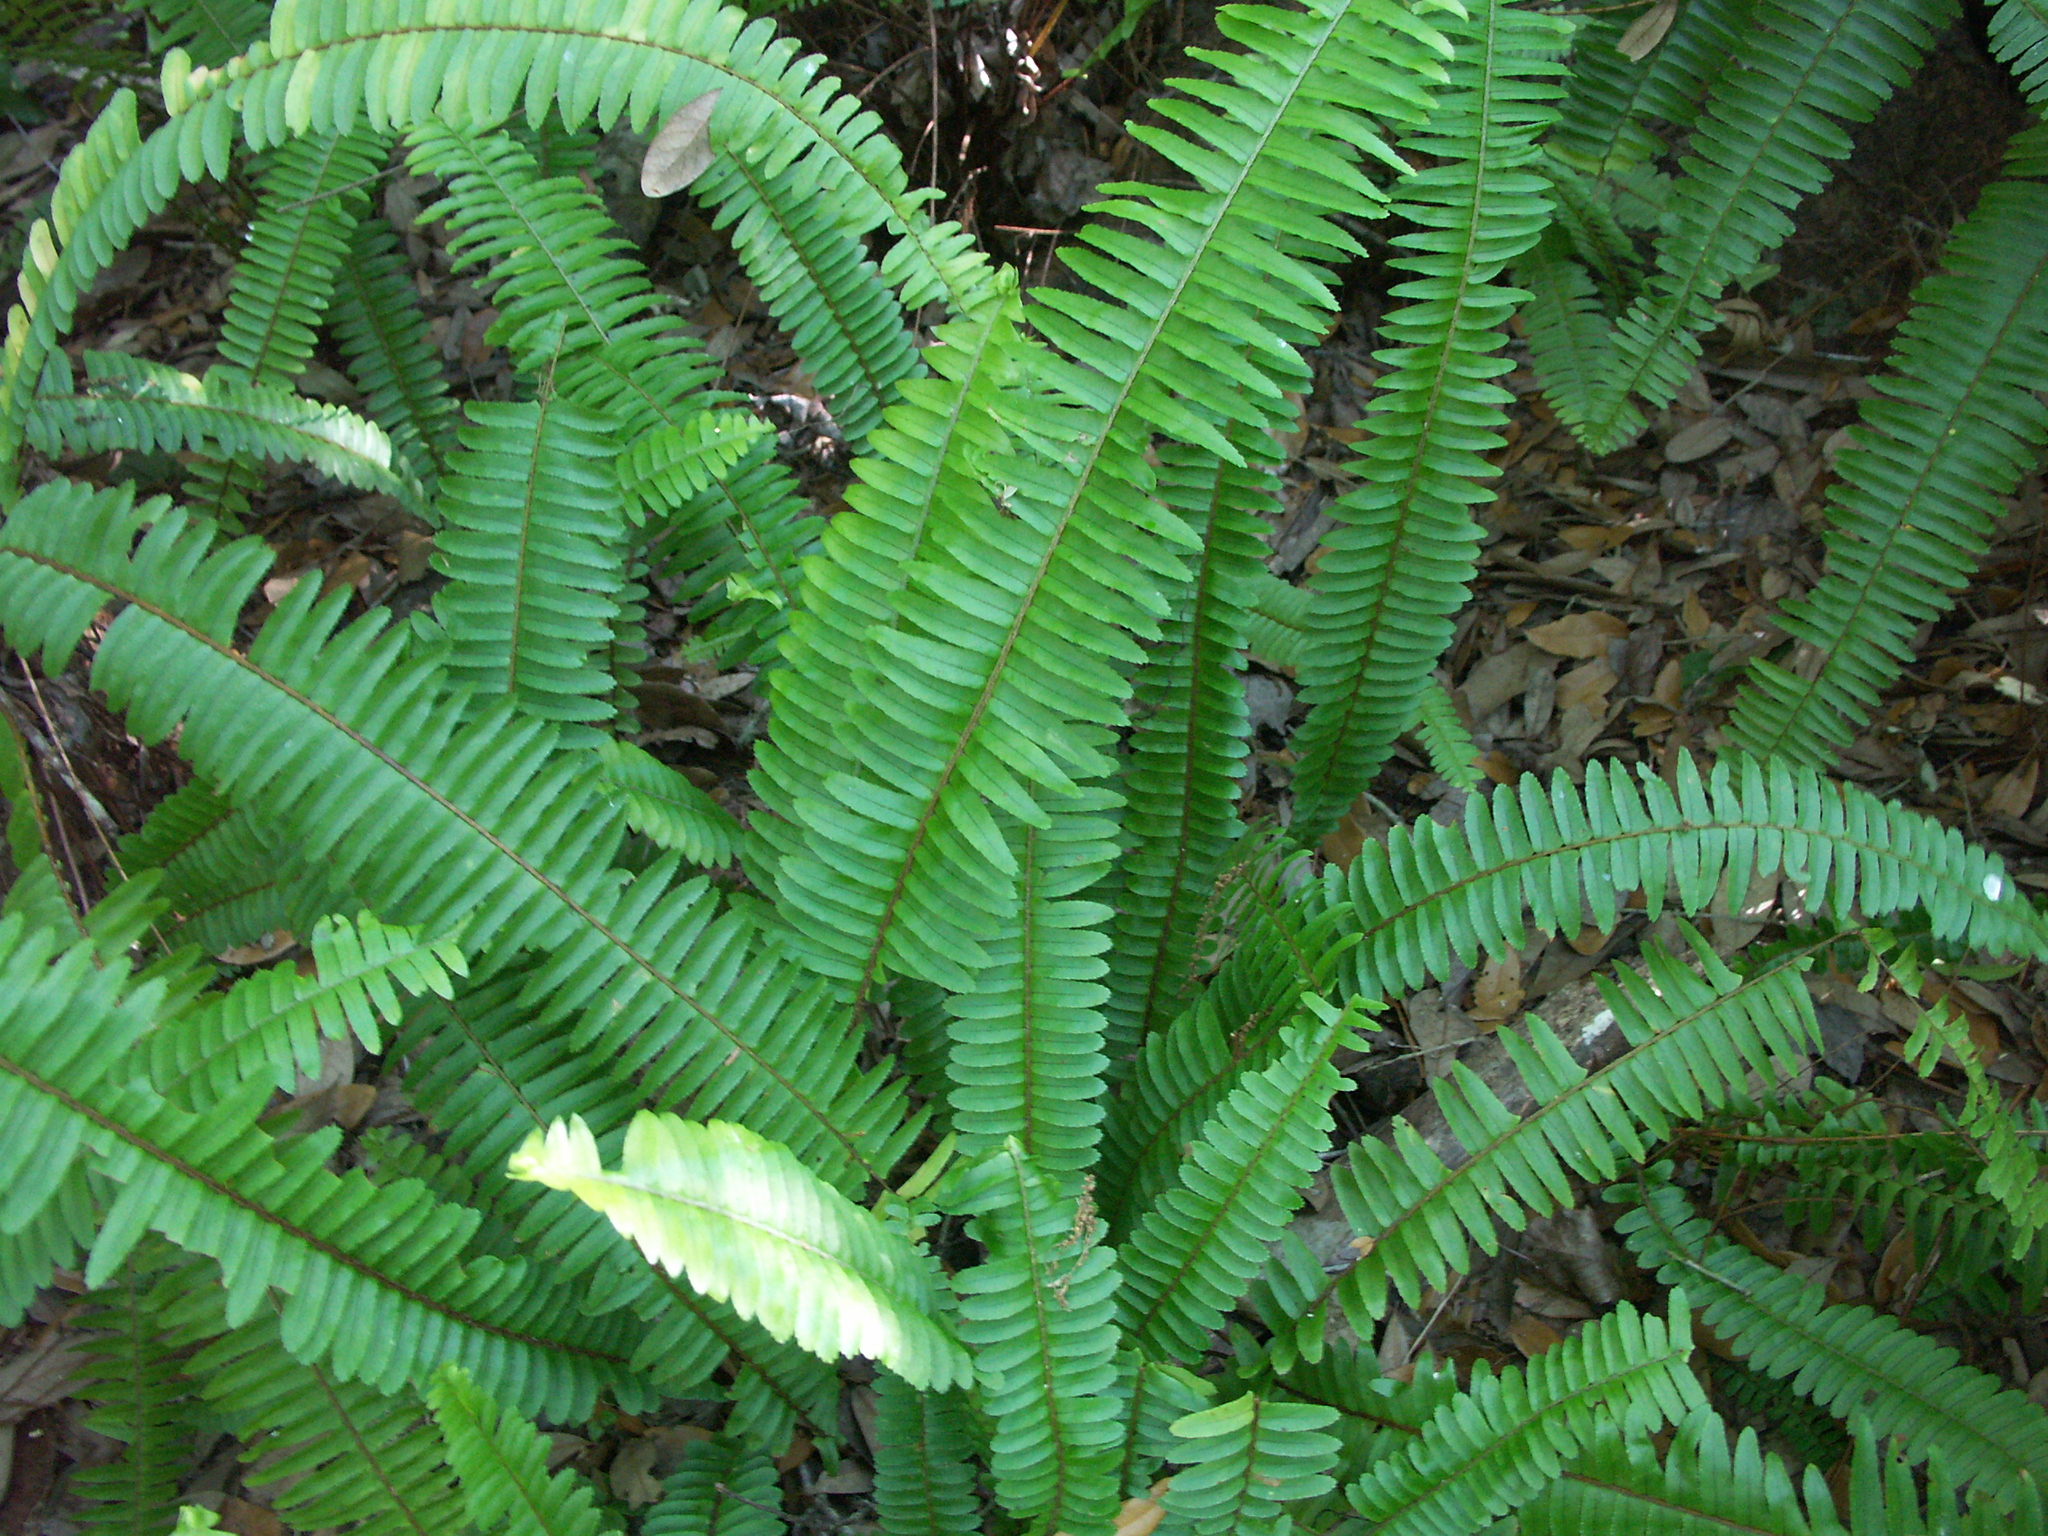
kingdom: Plantae
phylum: Tracheophyta
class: Polypodiopsida
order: Polypodiales
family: Nephrolepidaceae
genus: Nephrolepis
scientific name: Nephrolepis cordifolia
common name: Narrow swordfern
